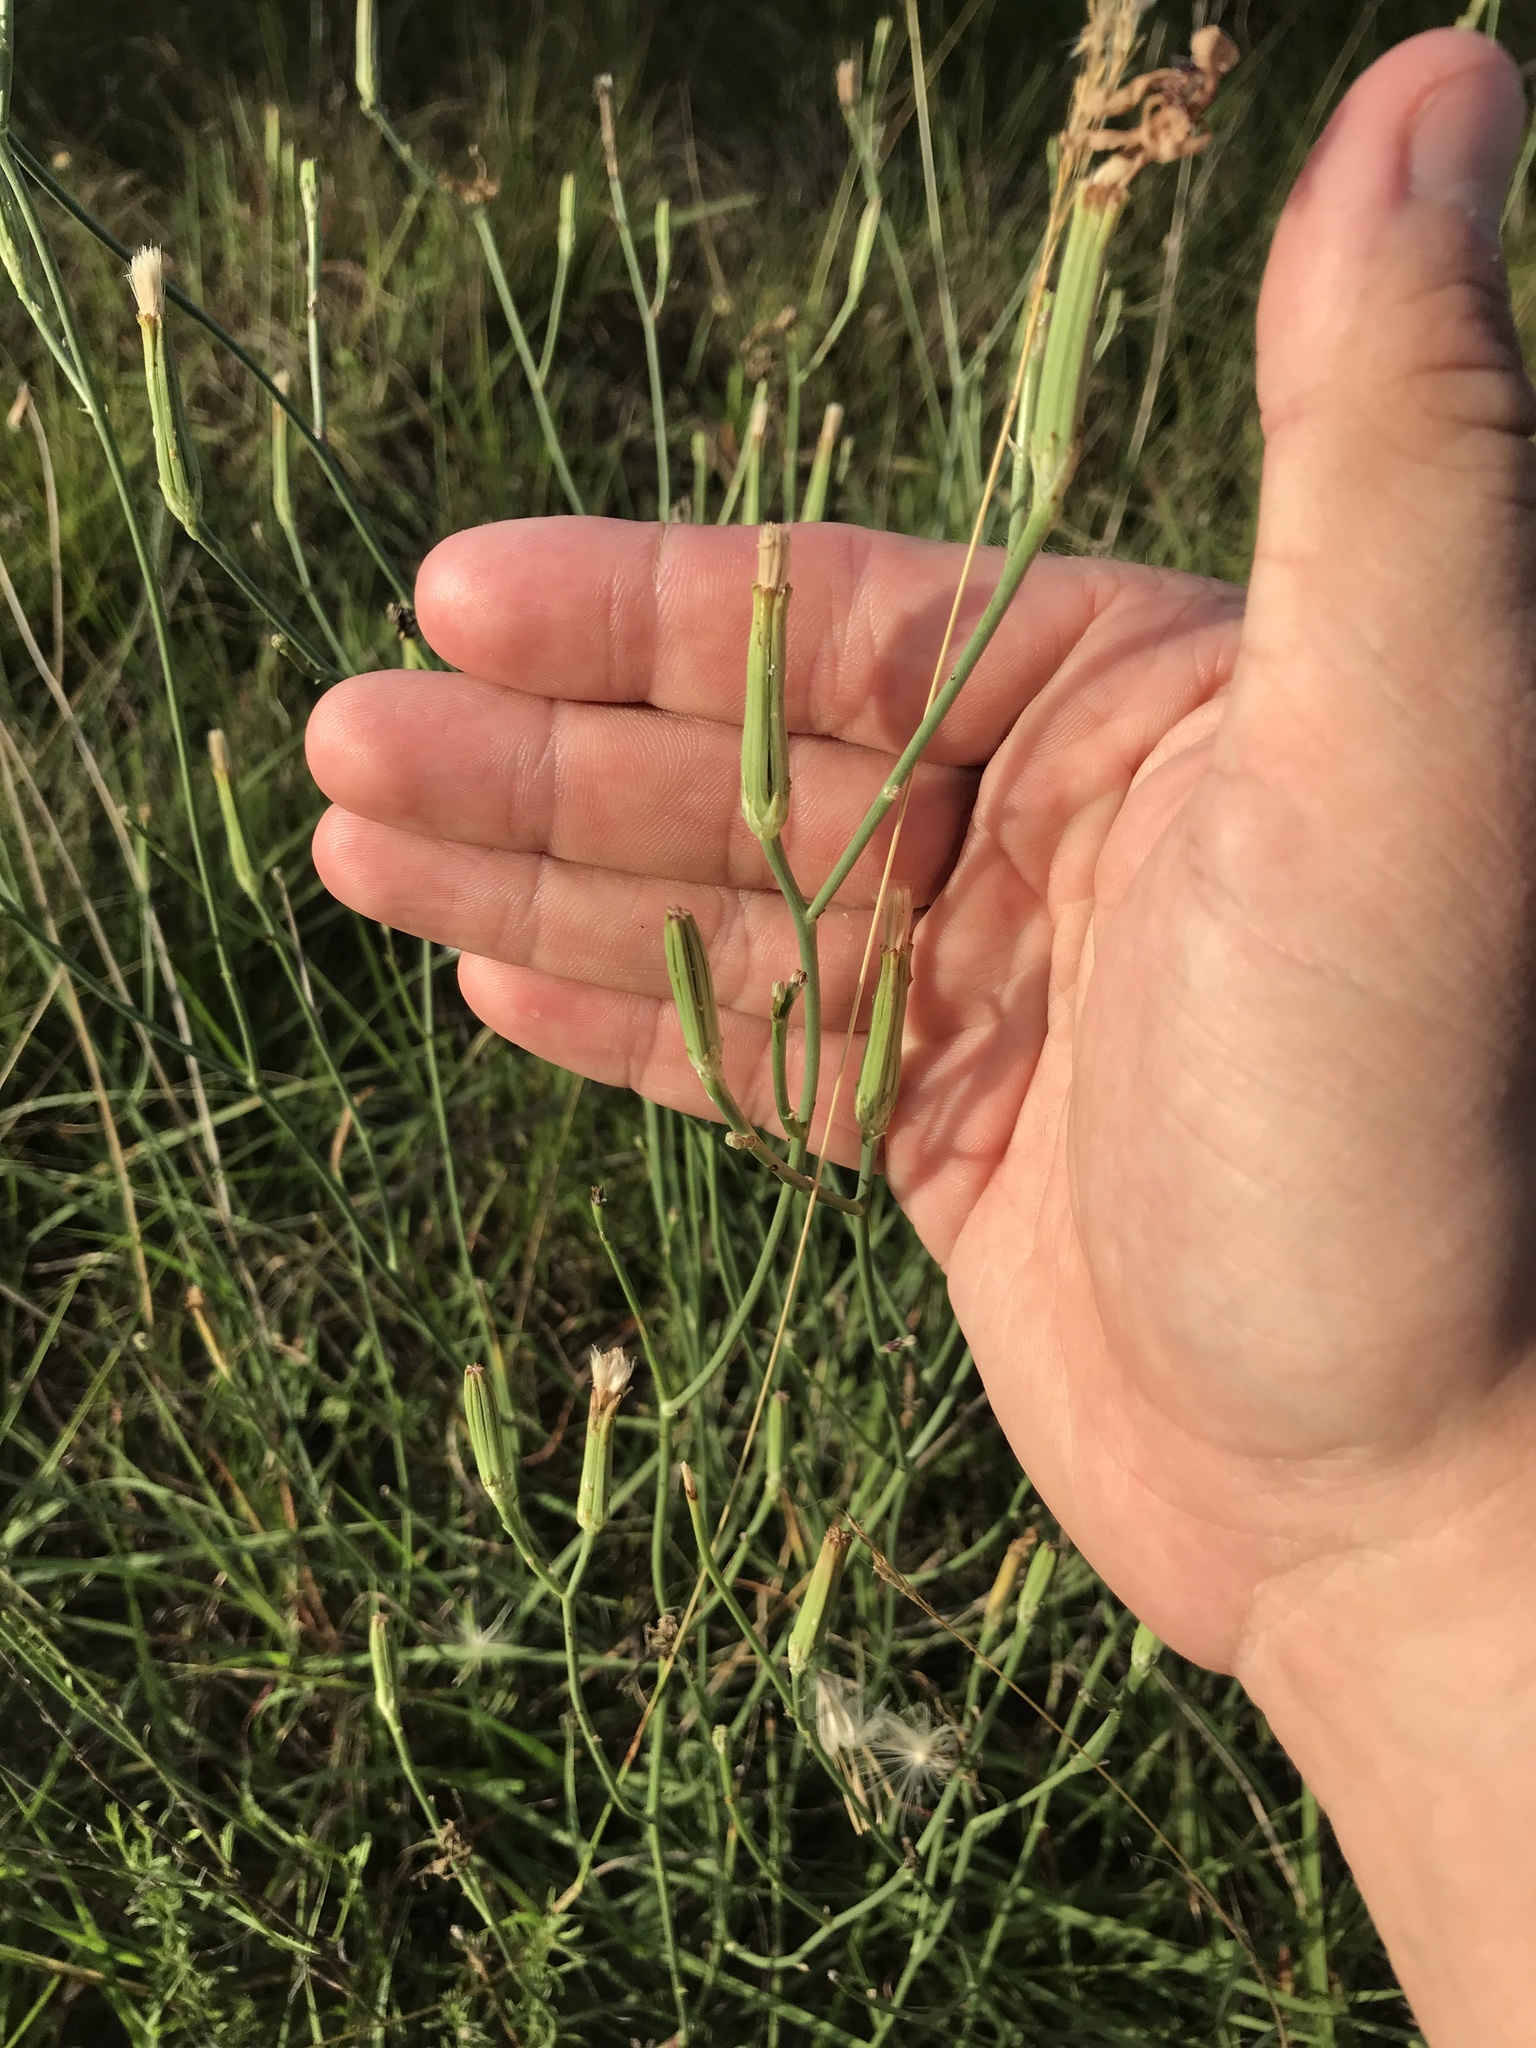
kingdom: Plantae
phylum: Tracheophyta
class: Magnoliopsida
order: Asterales
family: Asteraceae
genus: Lygodesmia
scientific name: Lygodesmia texana
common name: Texas skeleton-plant
